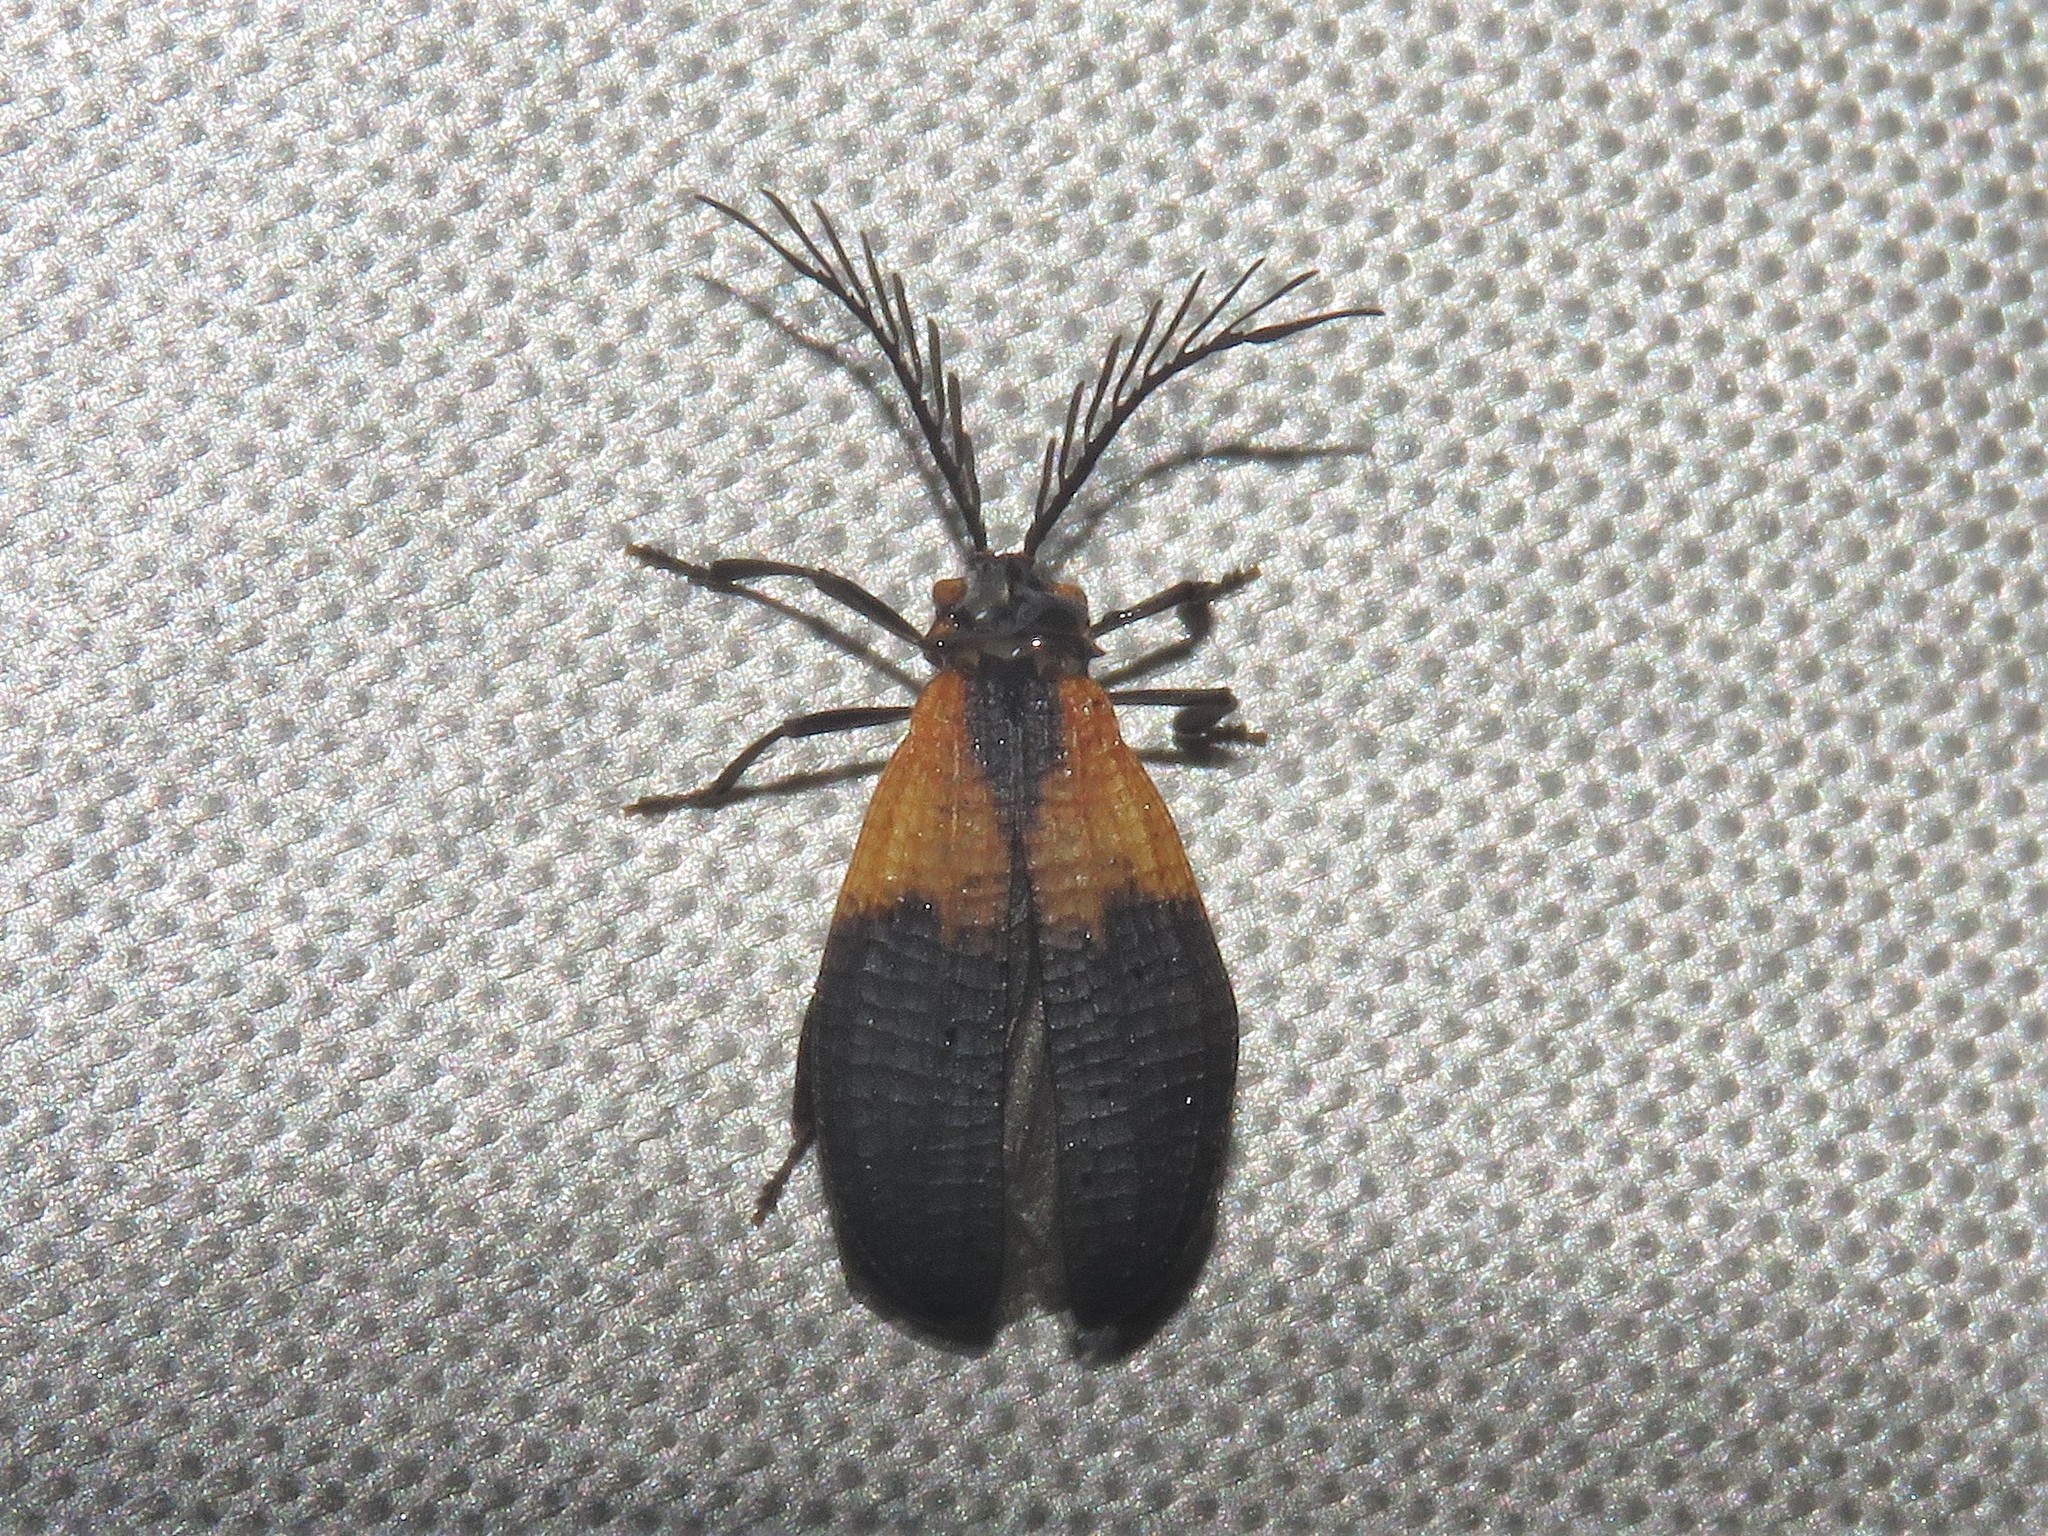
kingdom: Animalia
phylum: Arthropoda
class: Insecta
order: Coleoptera
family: Lycidae
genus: Caenia
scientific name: Caenia dimidiata
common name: Terminal net-winged beetle
